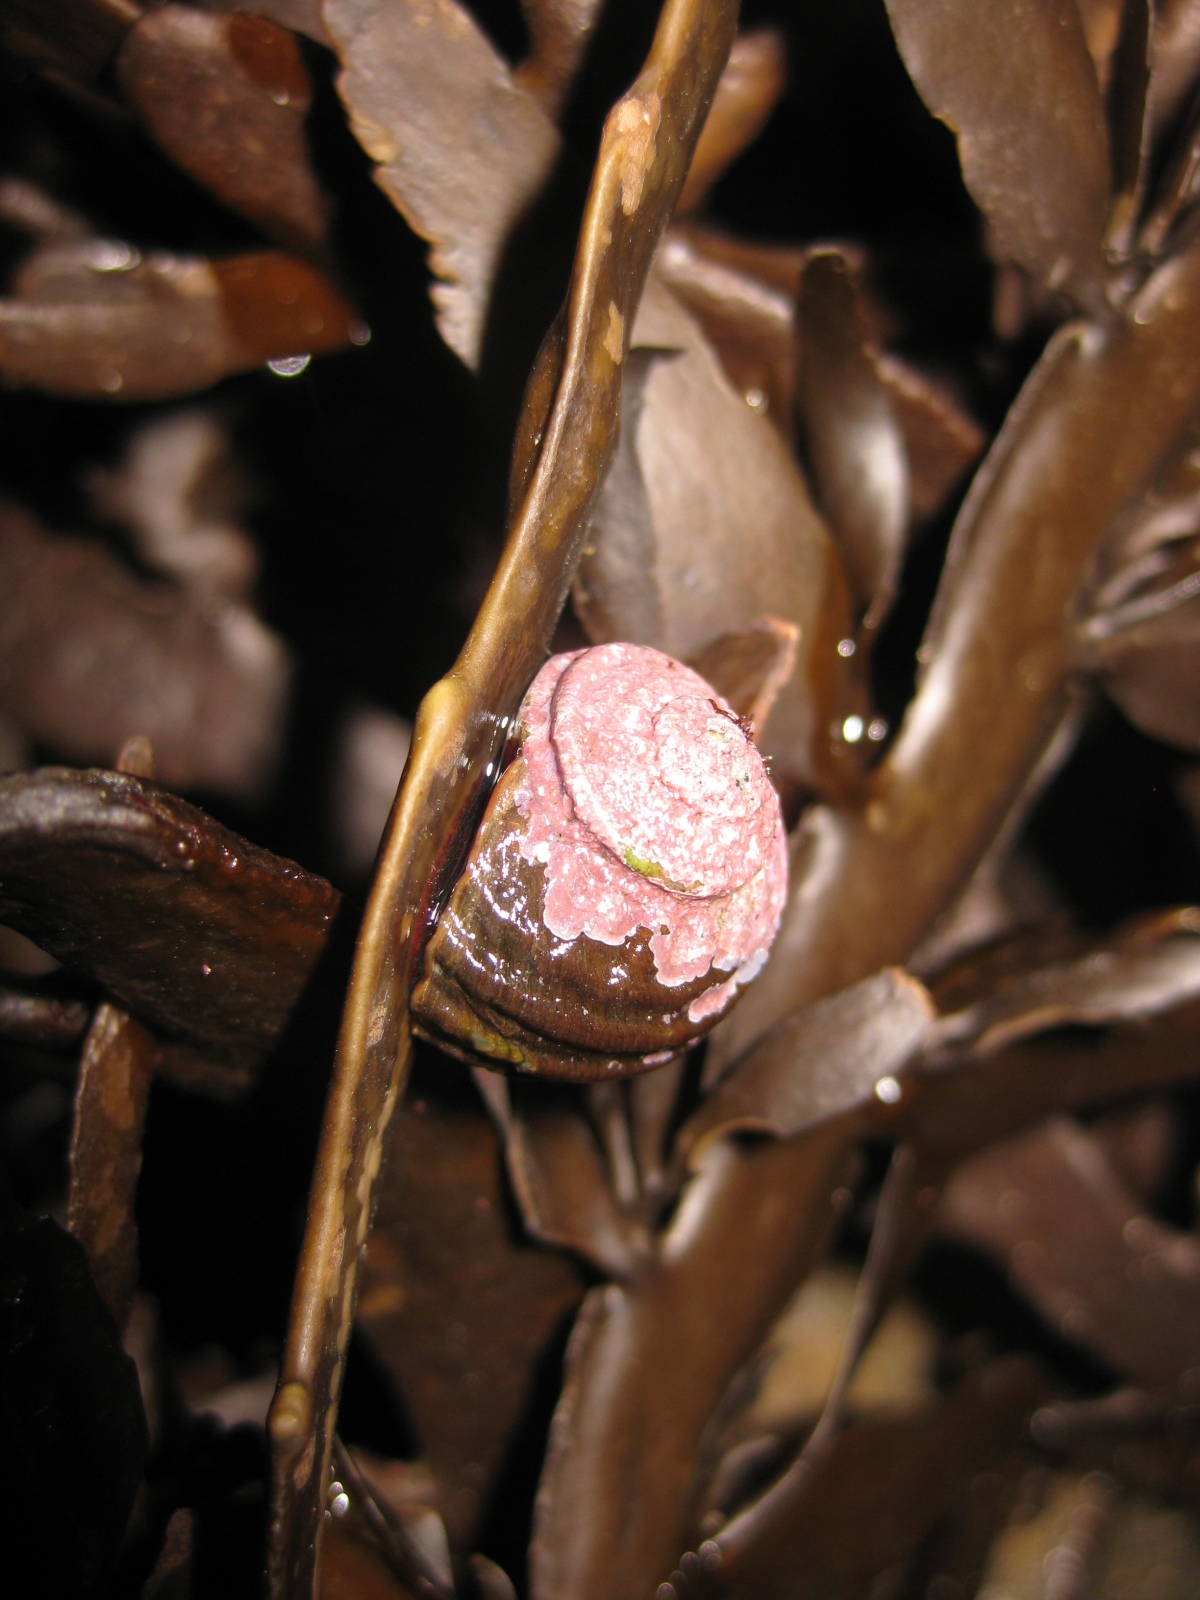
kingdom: Animalia
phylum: Mollusca
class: Gastropoda
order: Trochida
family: Turbinidae
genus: Lunella
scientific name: Lunella smaragda
